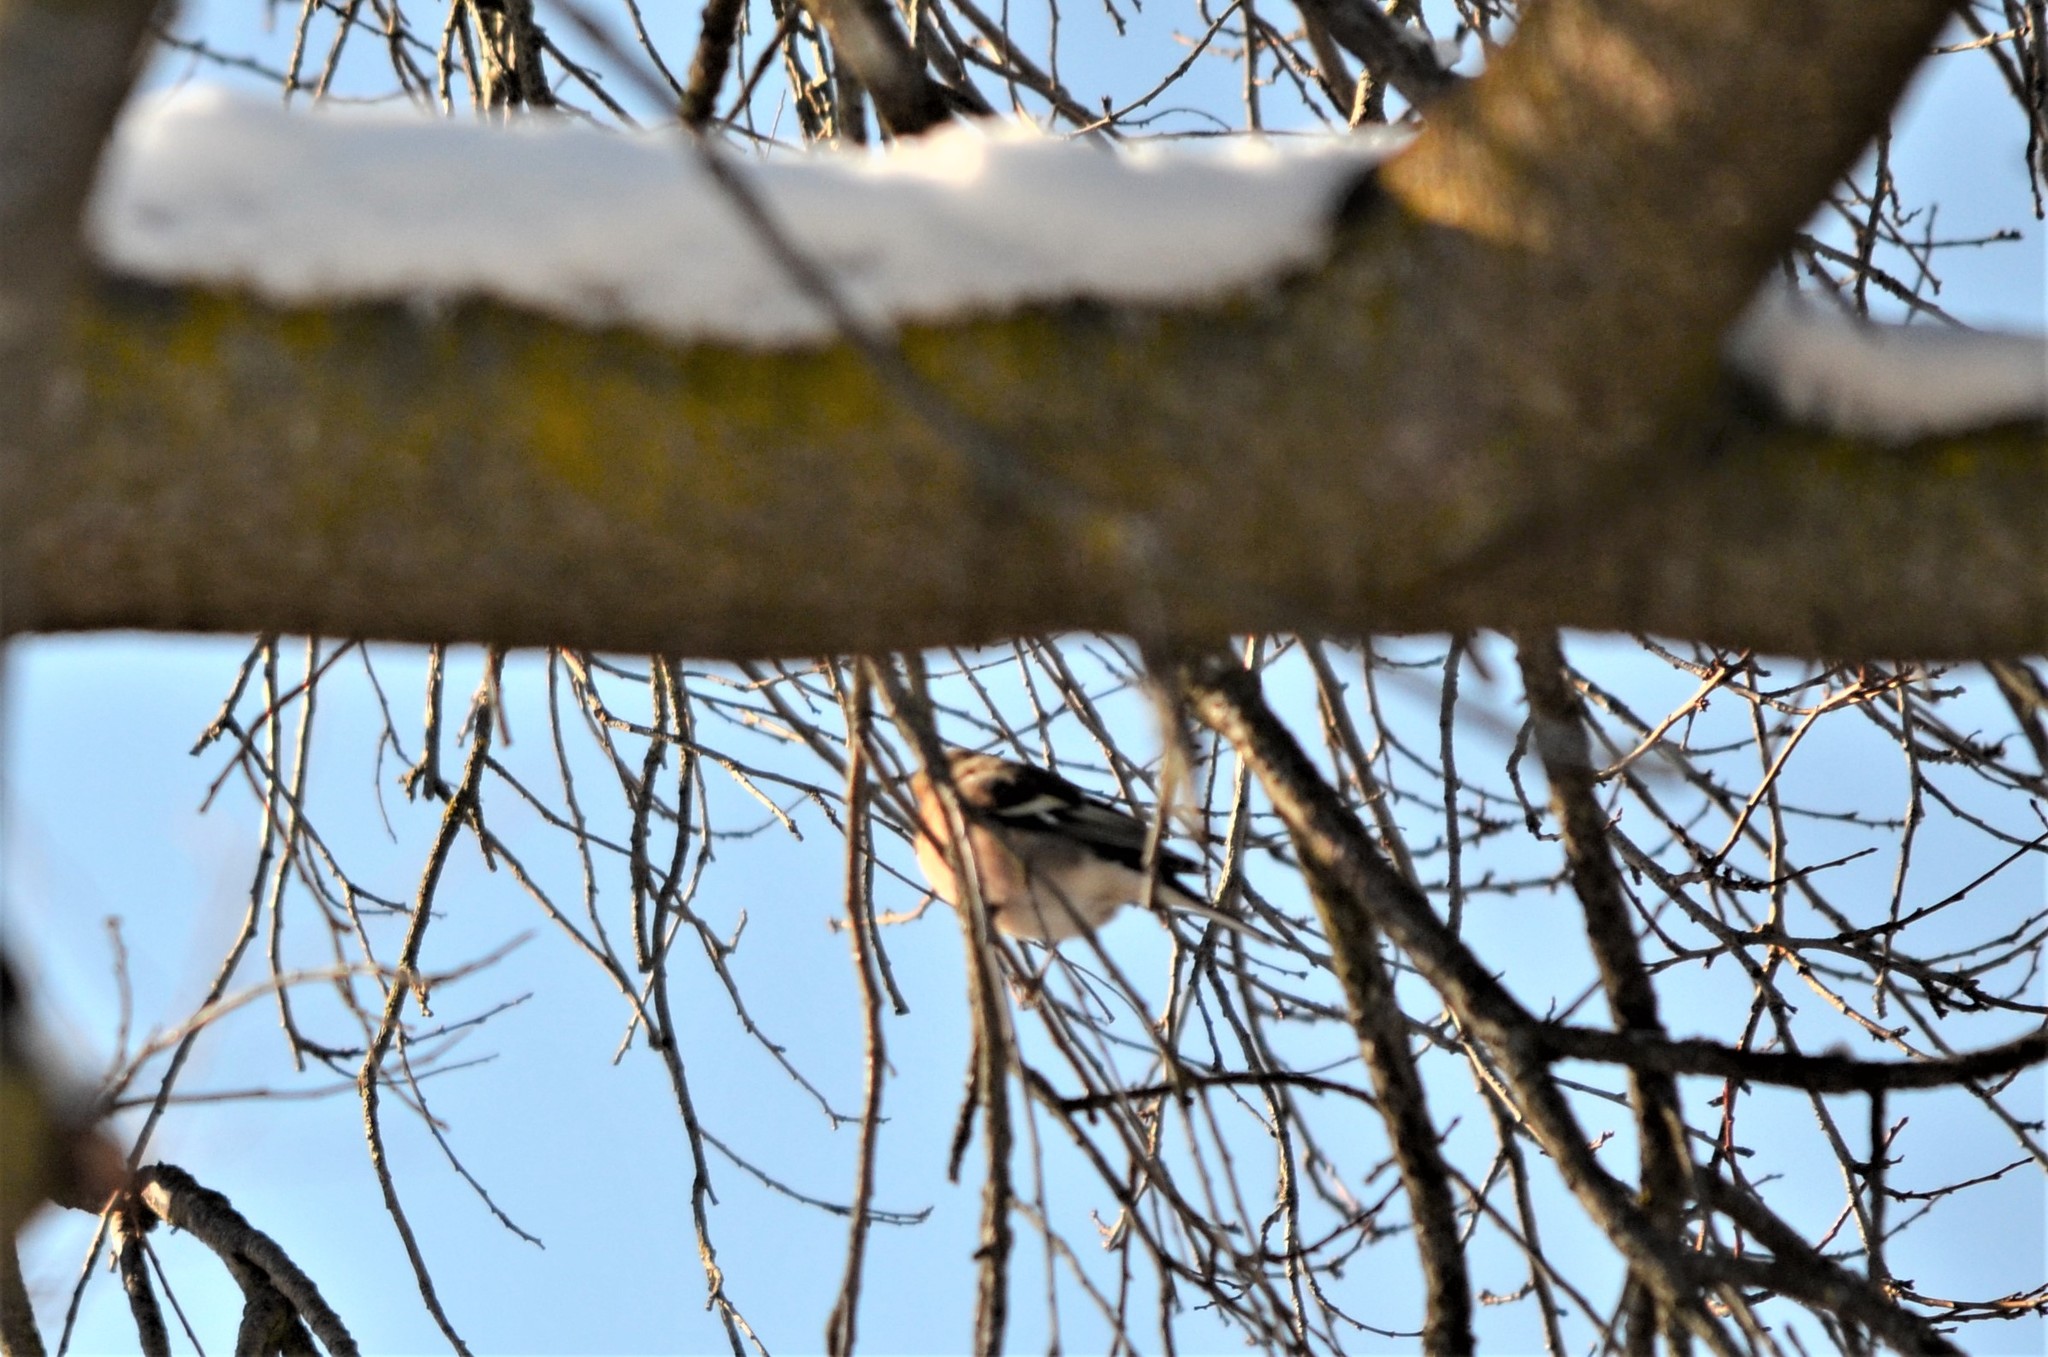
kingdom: Animalia
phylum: Chordata
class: Aves
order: Passeriformes
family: Fringillidae
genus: Fringilla
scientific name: Fringilla coelebs
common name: Common chaffinch
